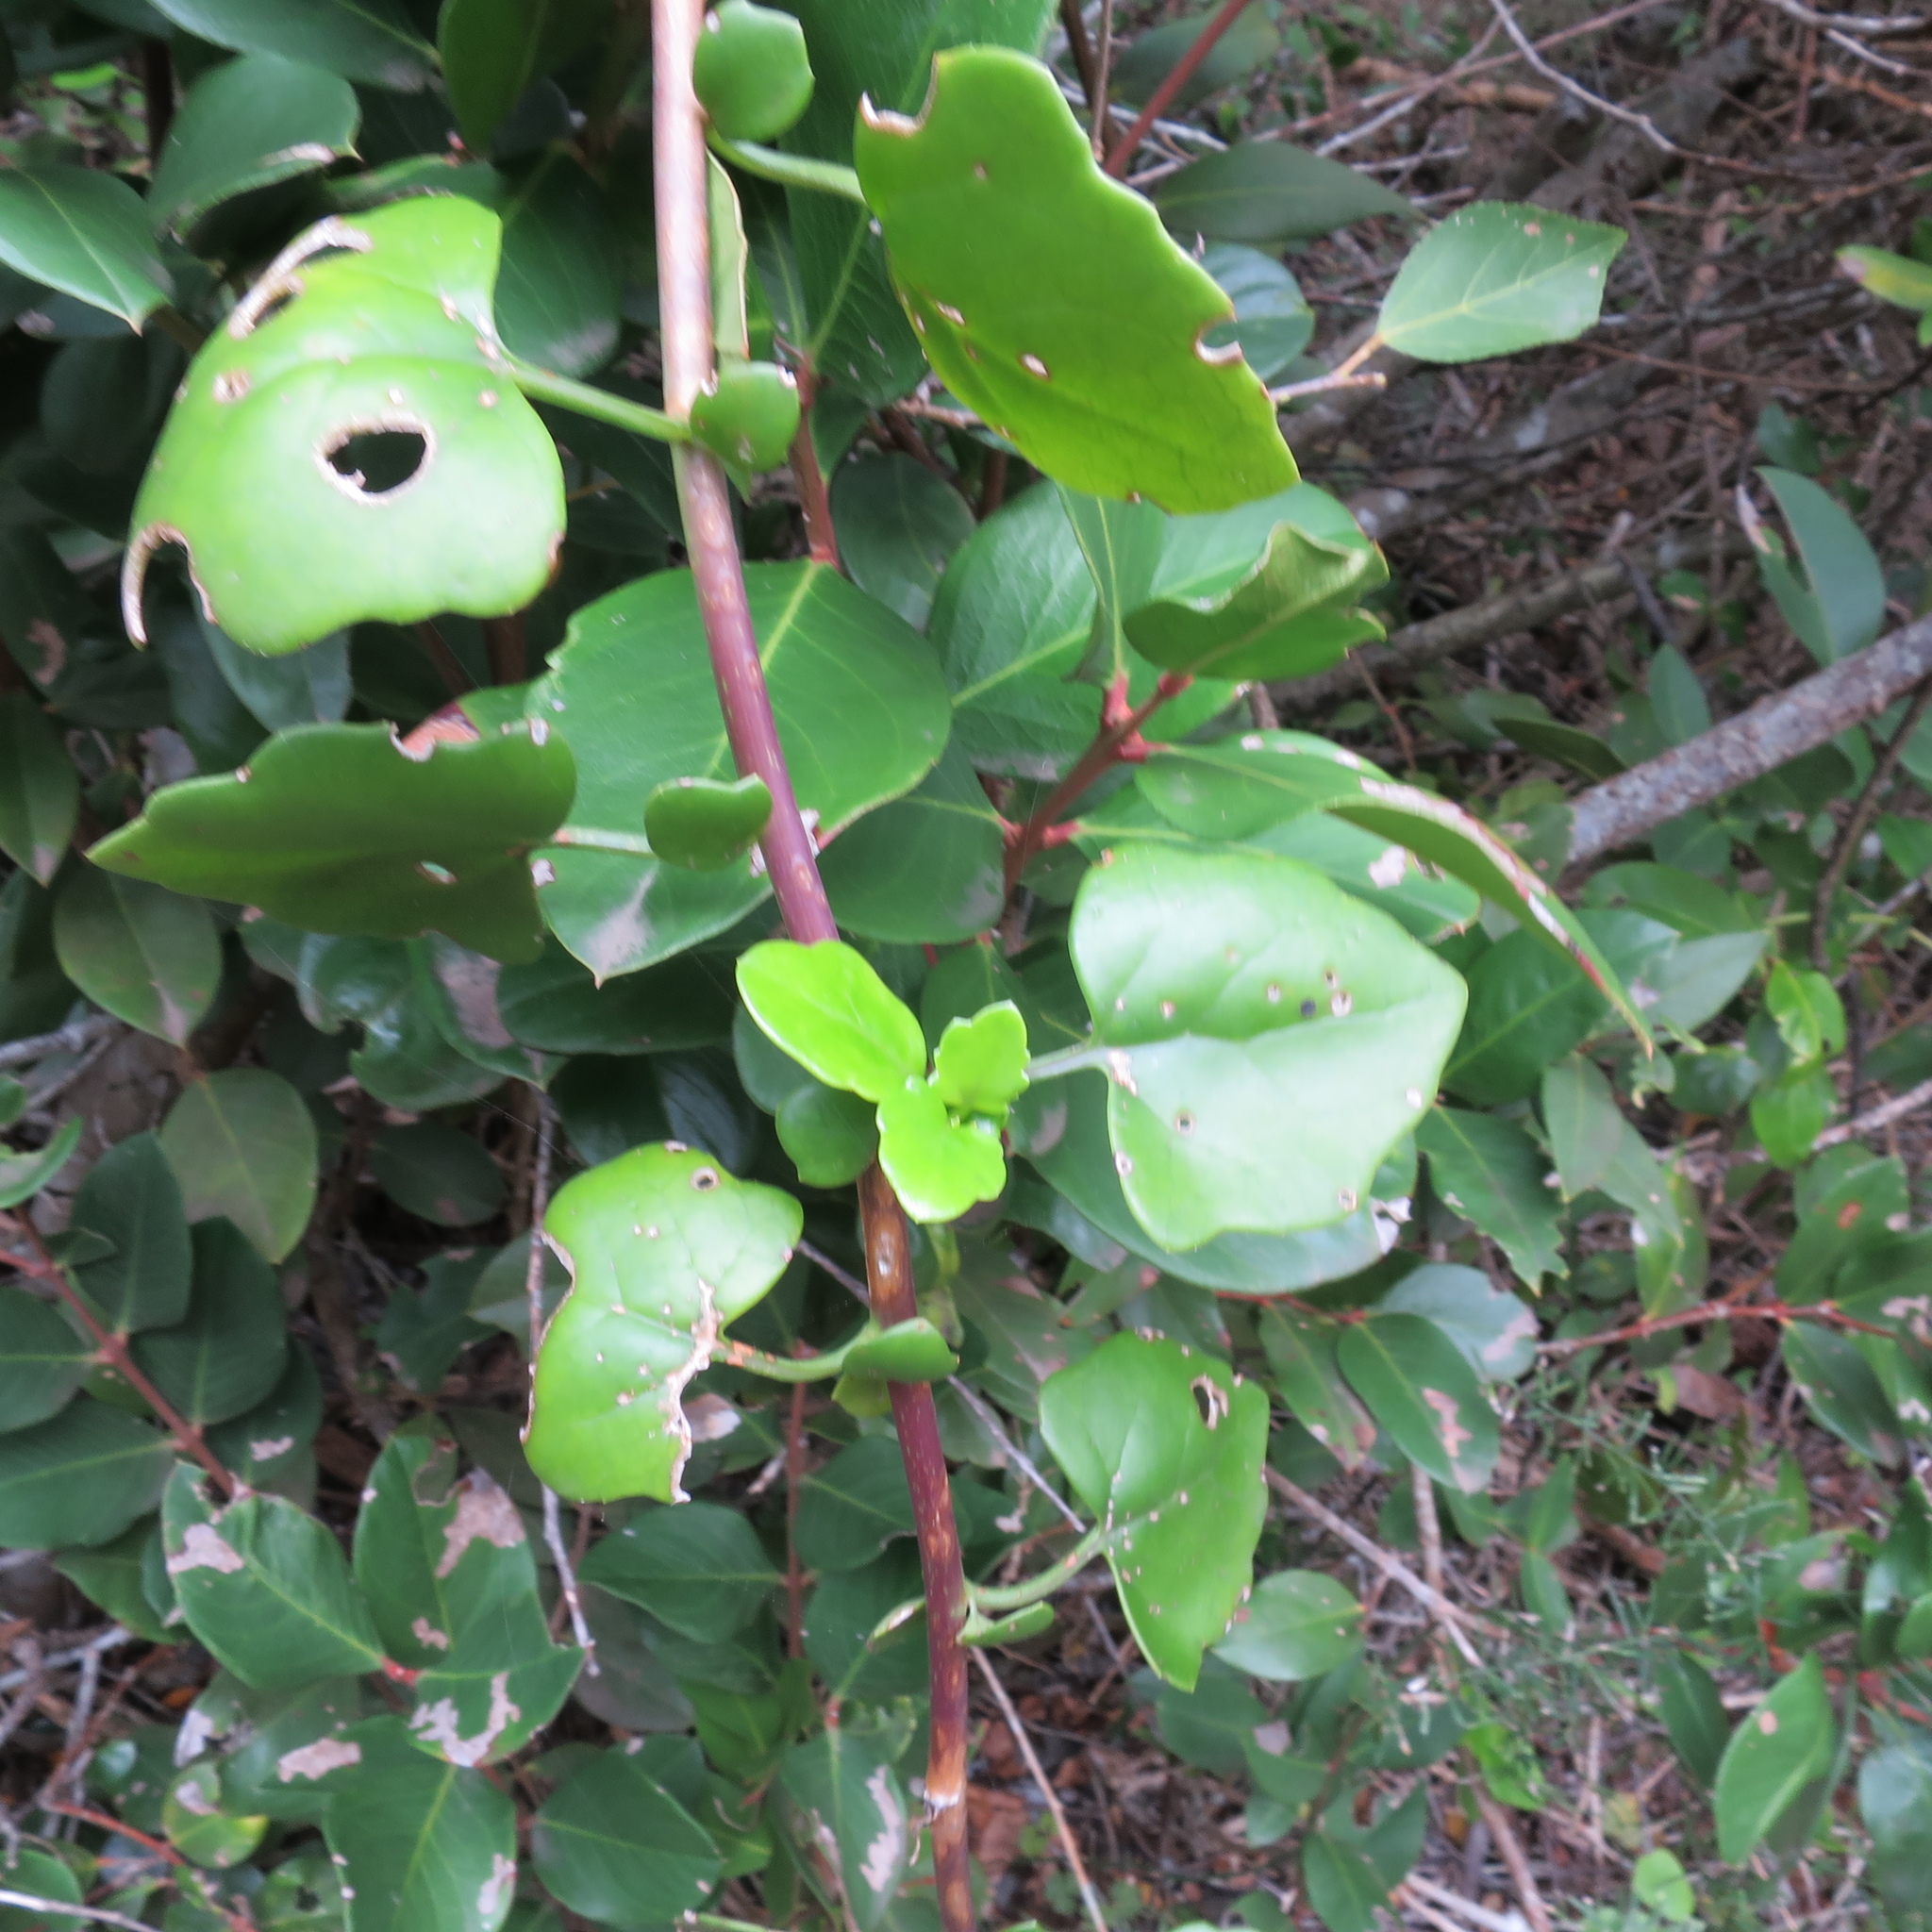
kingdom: Plantae
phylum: Tracheophyta
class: Magnoliopsida
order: Asterales
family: Asteraceae
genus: Senecio
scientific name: Senecio angulatus
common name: Climbing groundsel
